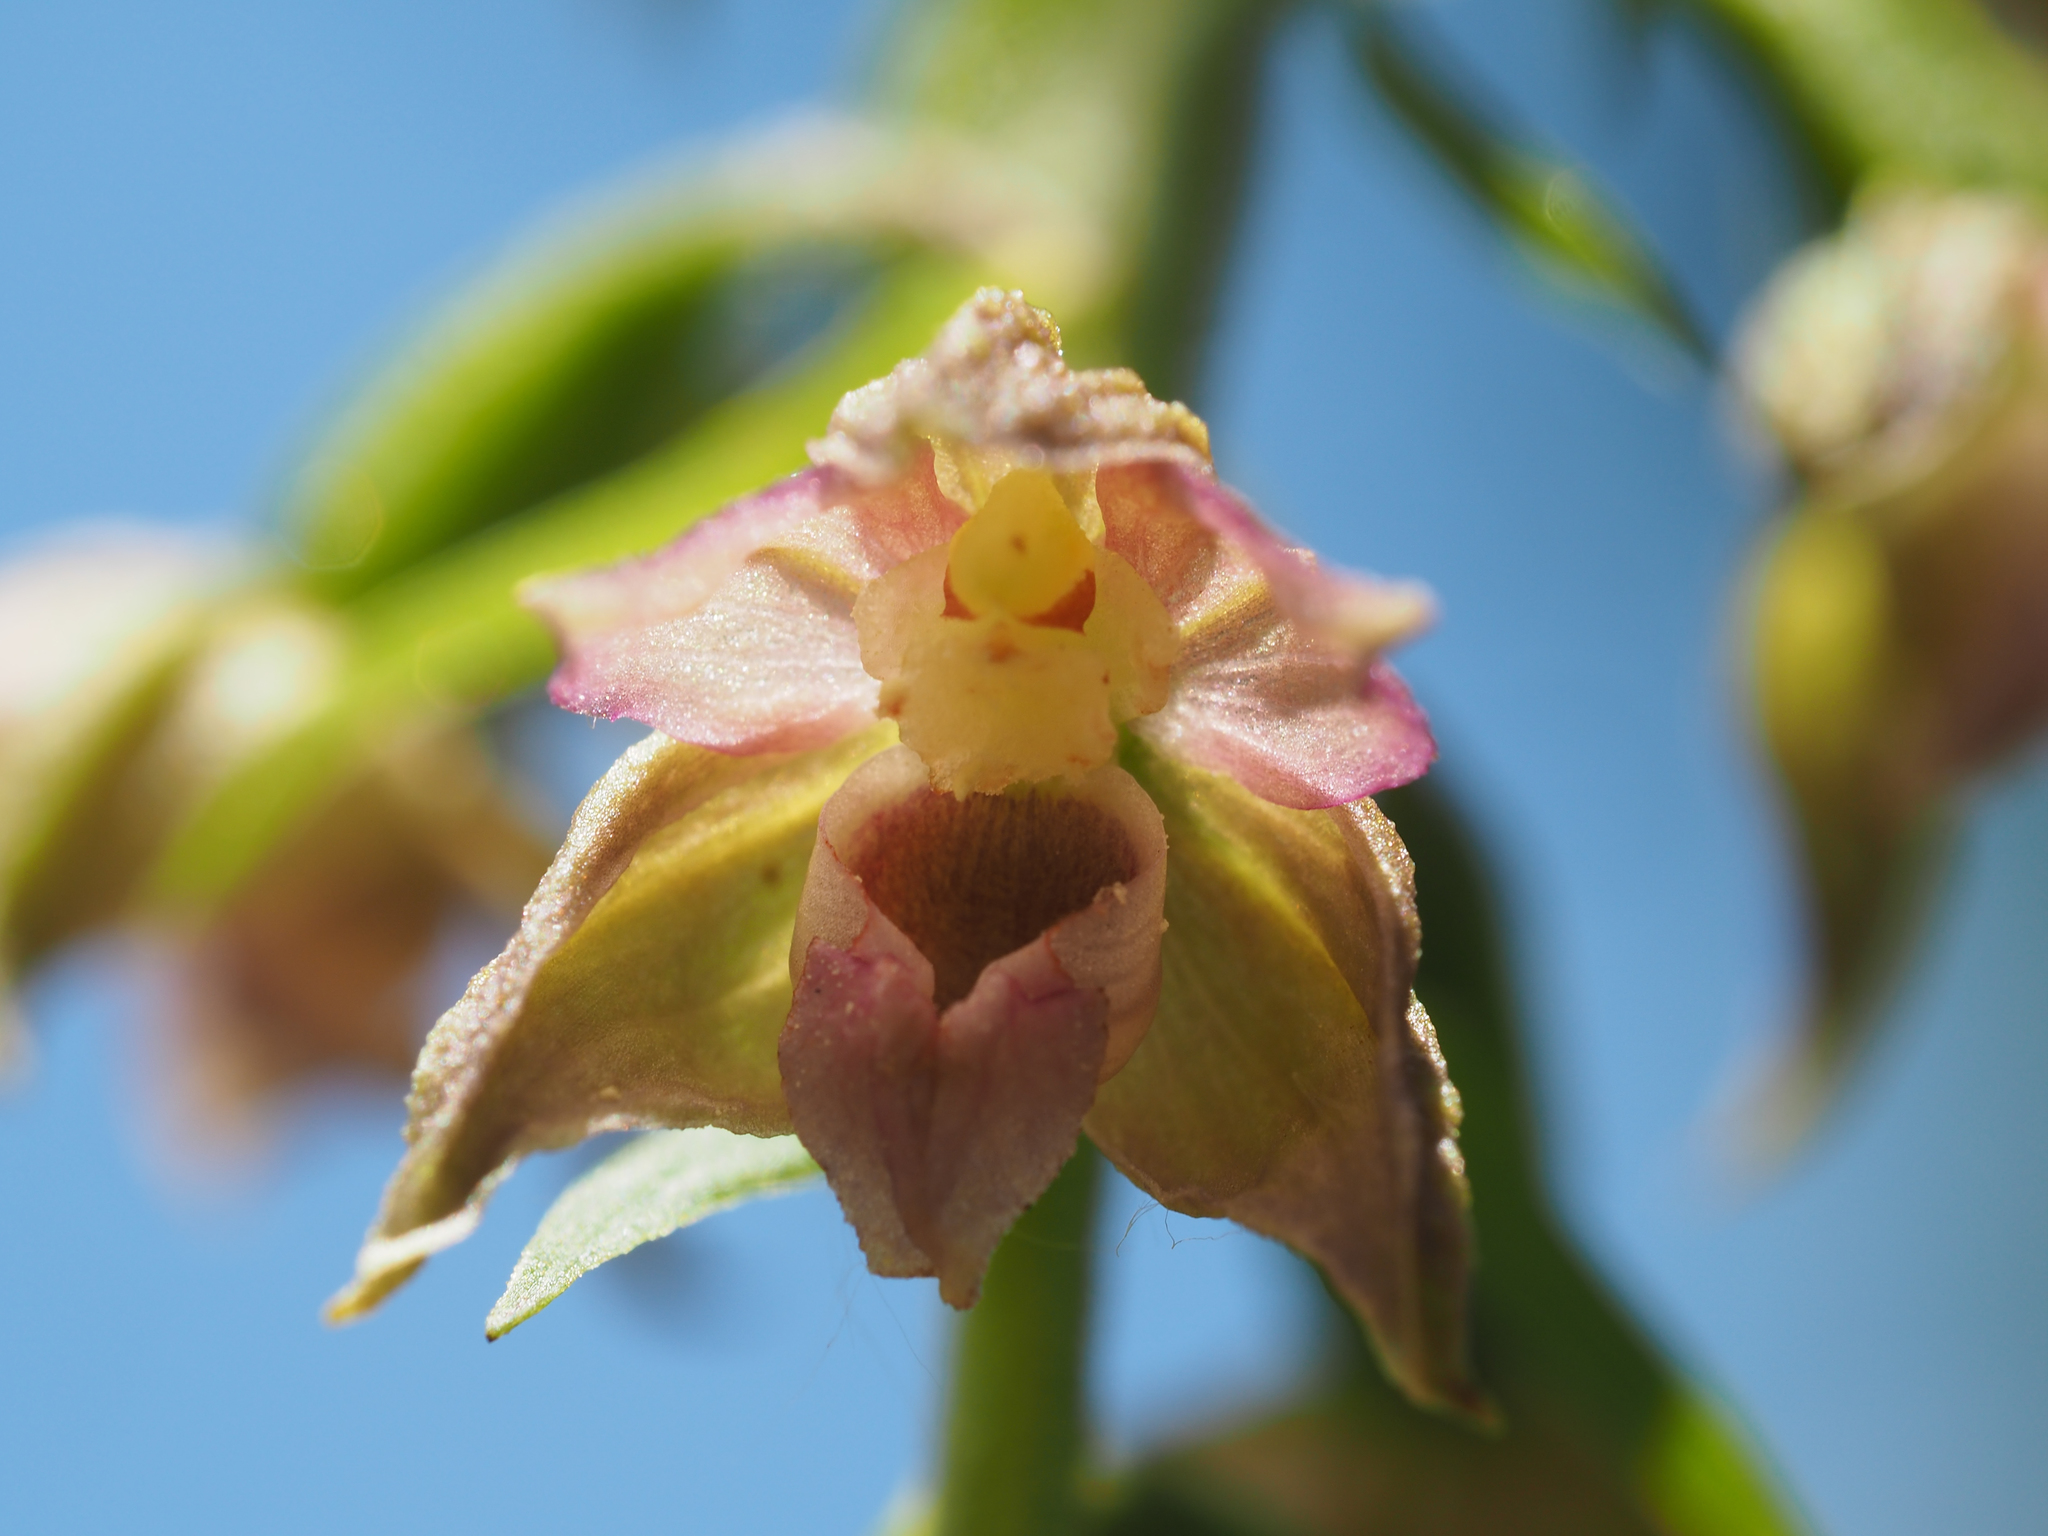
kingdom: Plantae
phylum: Tracheophyta
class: Liliopsida
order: Asparagales
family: Orchidaceae
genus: Epipactis
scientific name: Epipactis bugacensis
